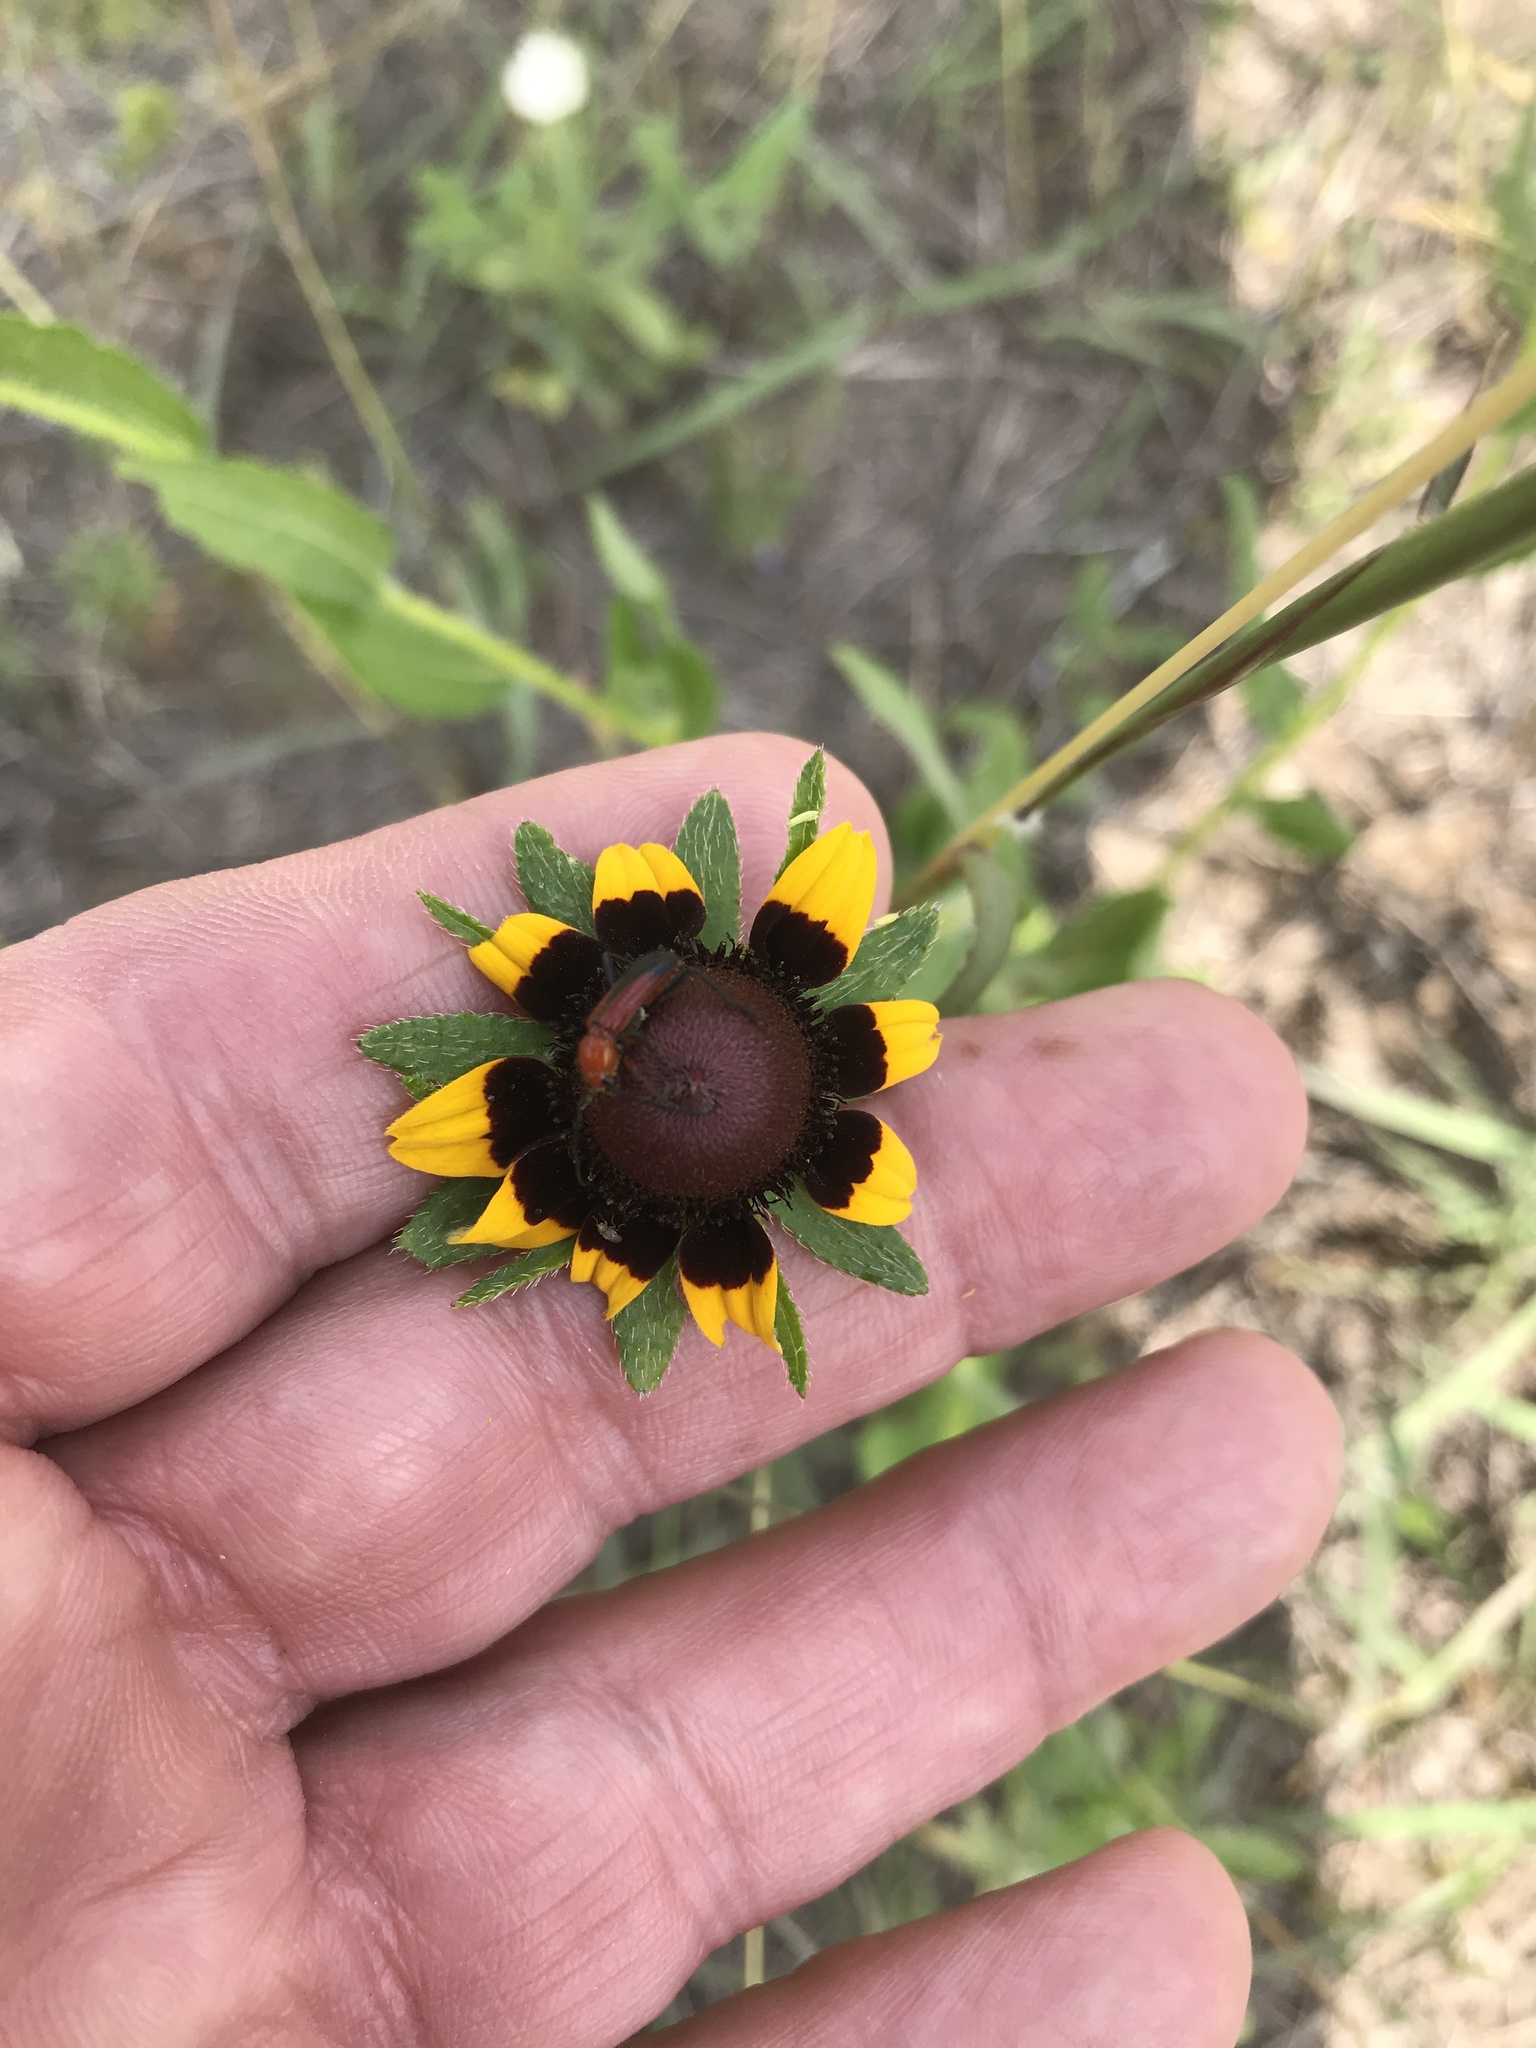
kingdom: Plantae
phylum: Tracheophyta
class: Magnoliopsida
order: Asterales
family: Asteraceae
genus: Rudbeckia
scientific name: Rudbeckia hirta
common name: Black-eyed-susan
